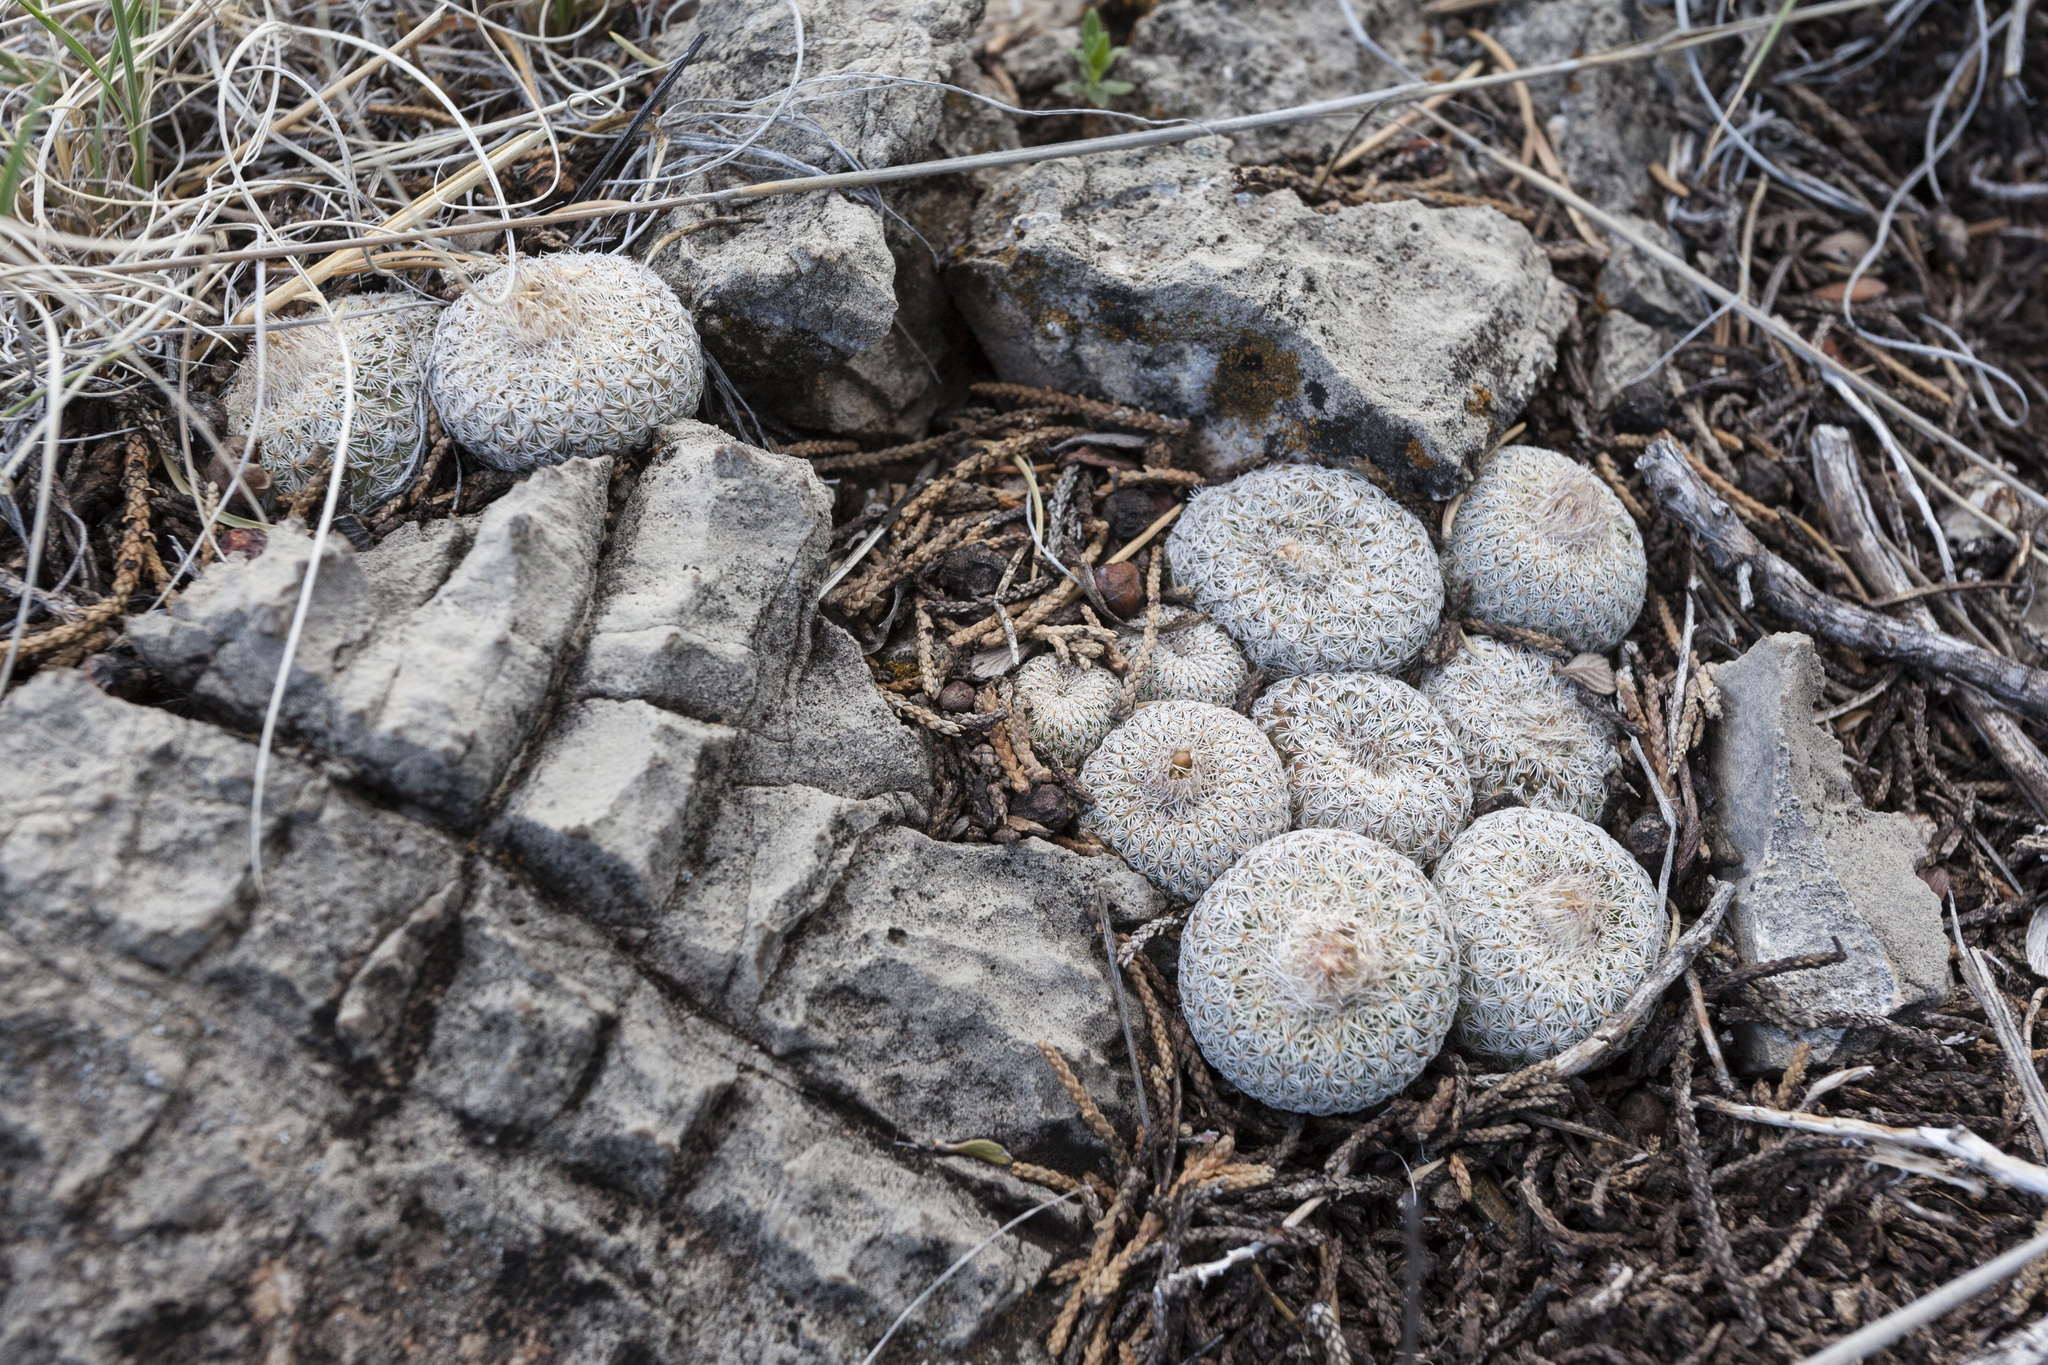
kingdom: Plantae
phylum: Tracheophyta
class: Magnoliopsida
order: Caryophyllales
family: Cactaceae
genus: Epithelantha
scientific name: Epithelantha micromeris
